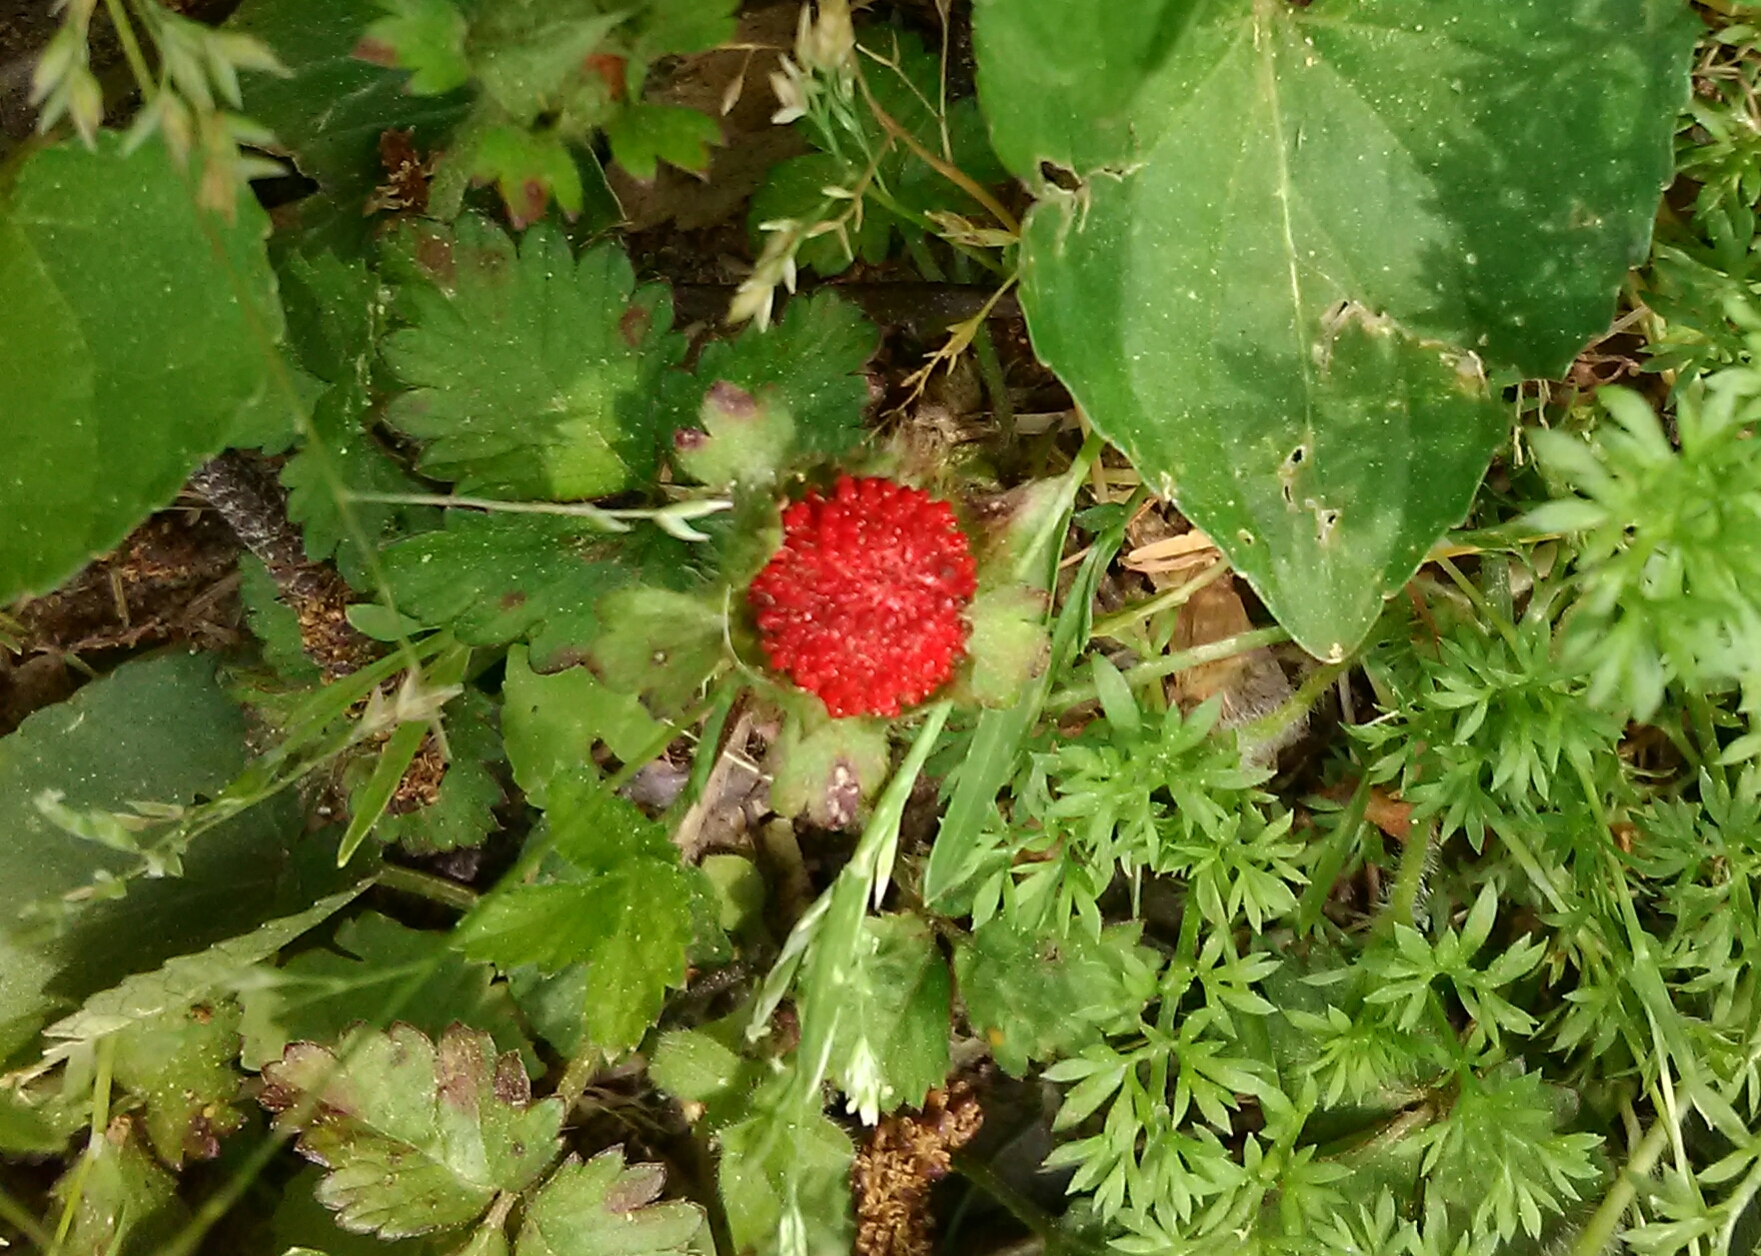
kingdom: Plantae
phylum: Tracheophyta
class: Magnoliopsida
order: Rosales
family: Rosaceae
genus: Potentilla
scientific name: Potentilla indica
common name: Yellow-flowered strawberry
